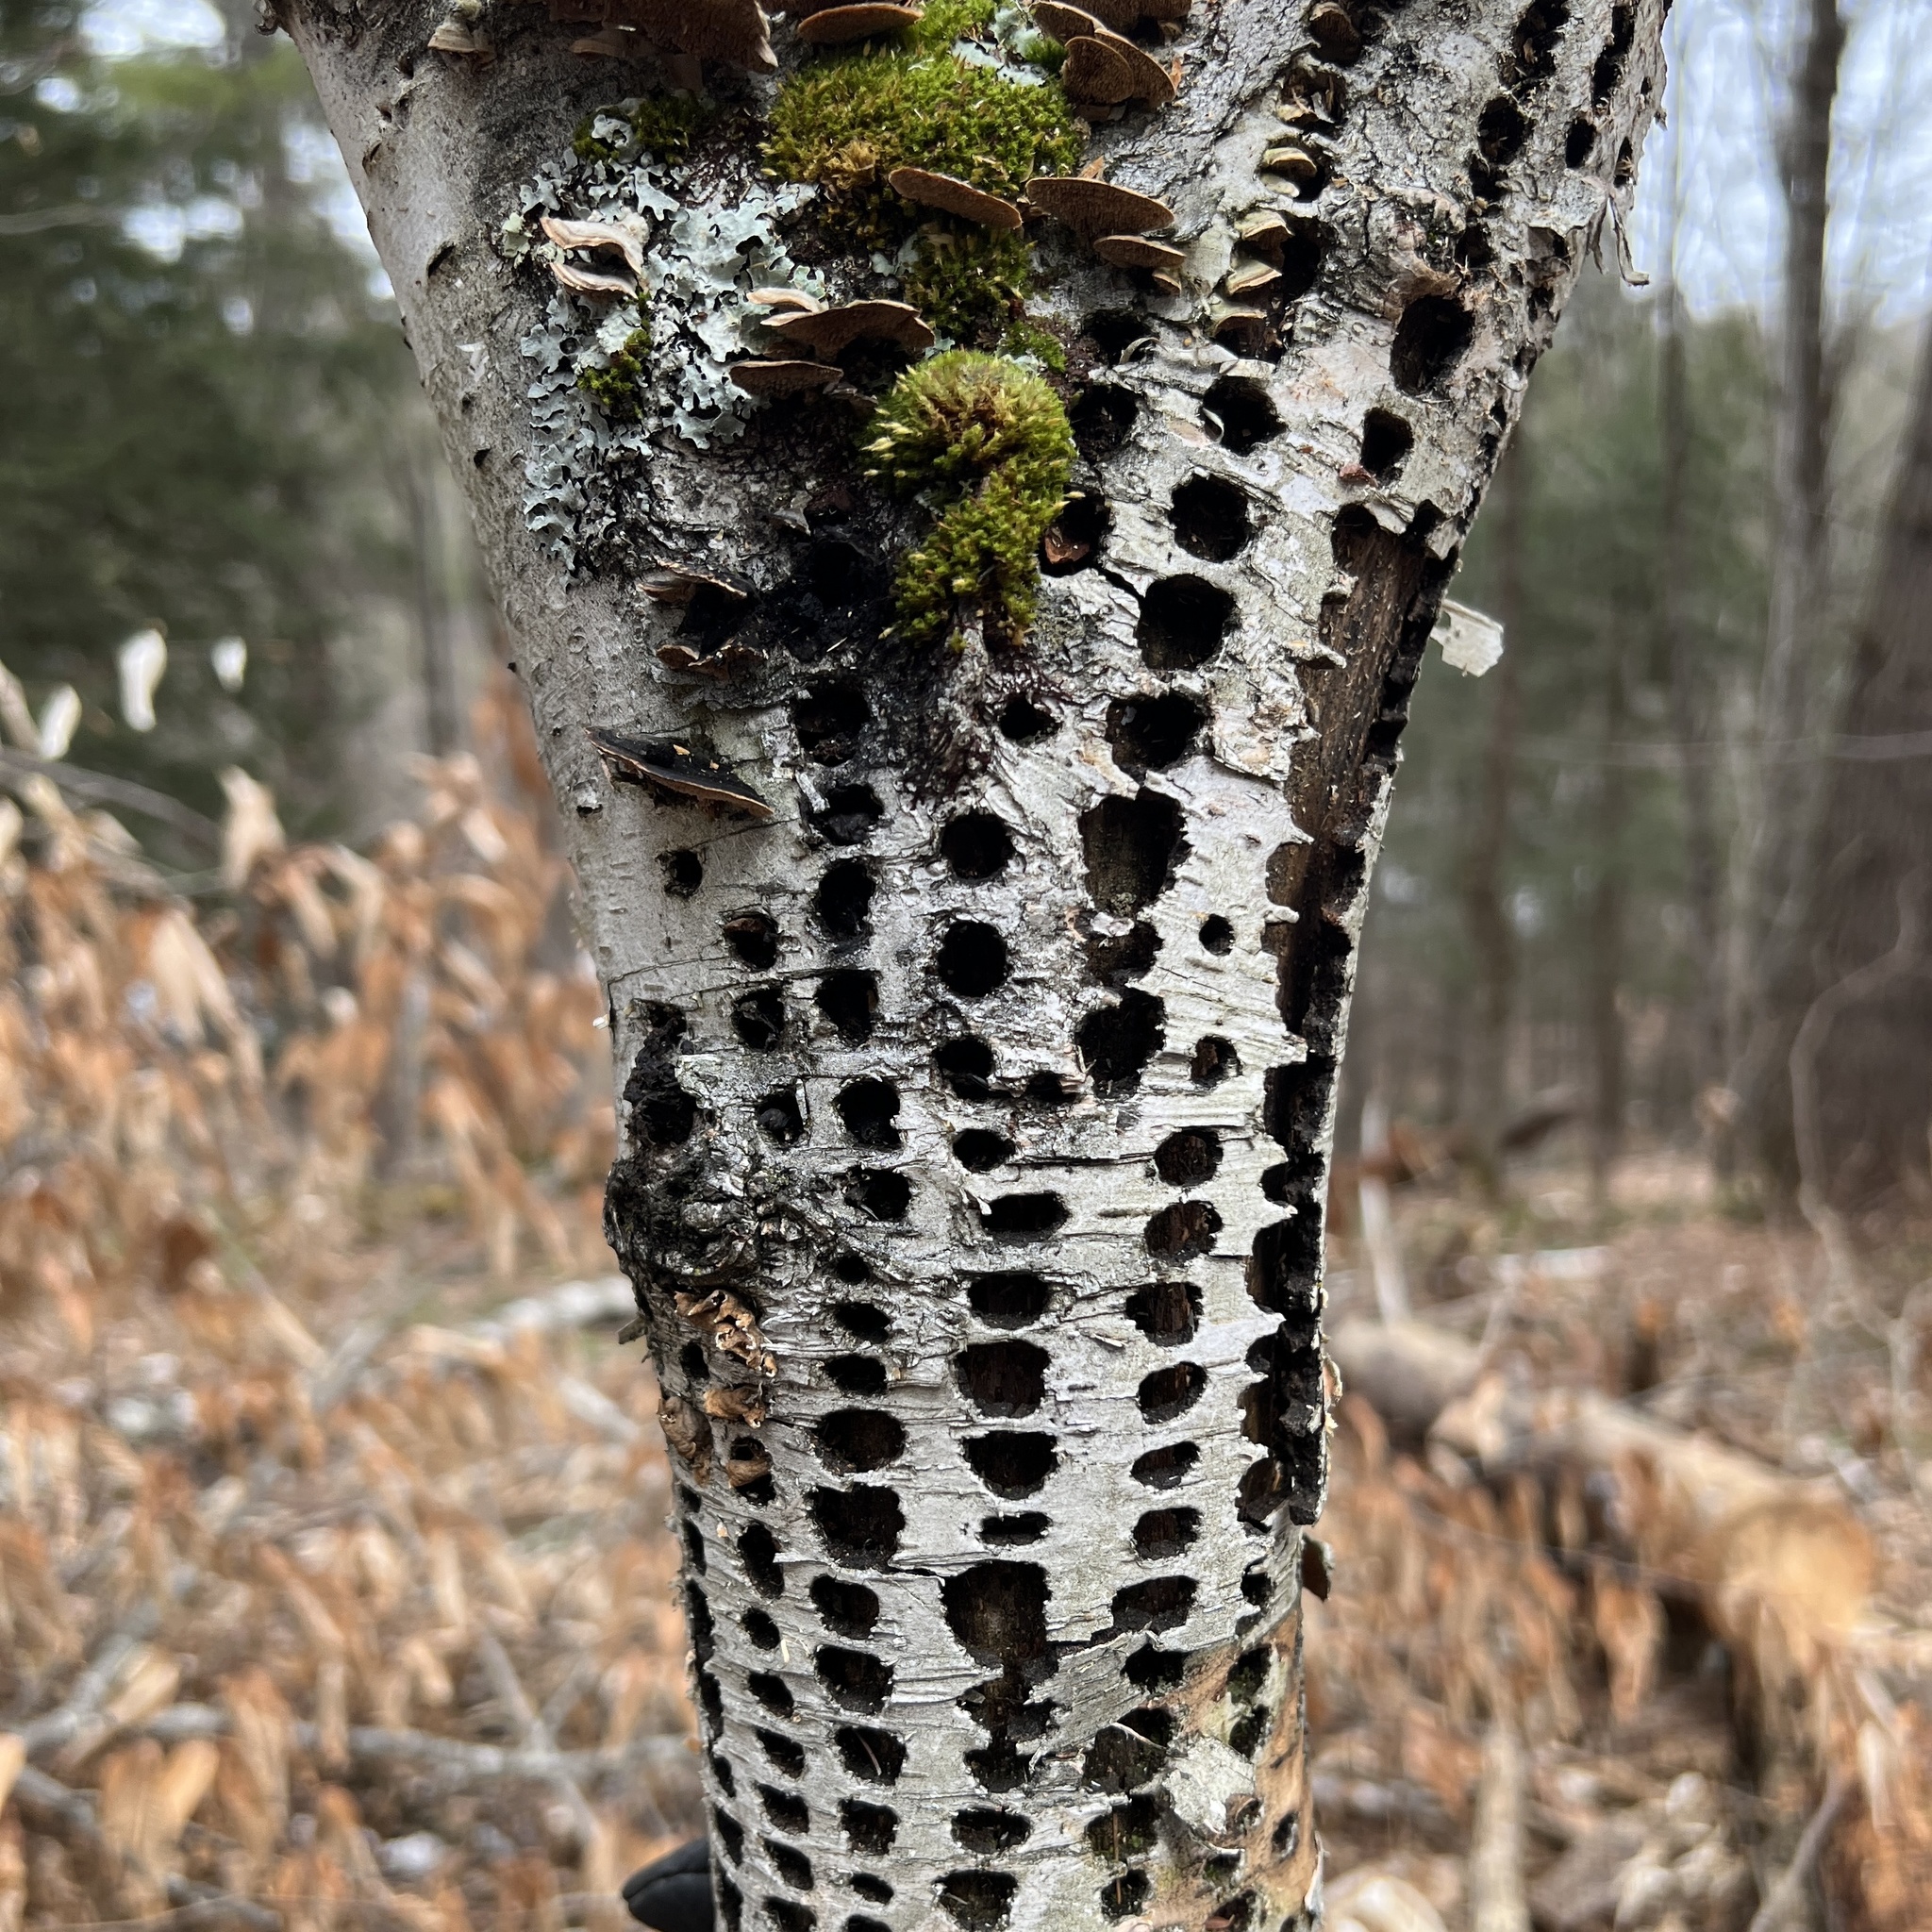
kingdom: Animalia
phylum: Chordata
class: Aves
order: Piciformes
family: Picidae
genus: Sphyrapicus
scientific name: Sphyrapicus varius
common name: Yellow-bellied sapsucker
